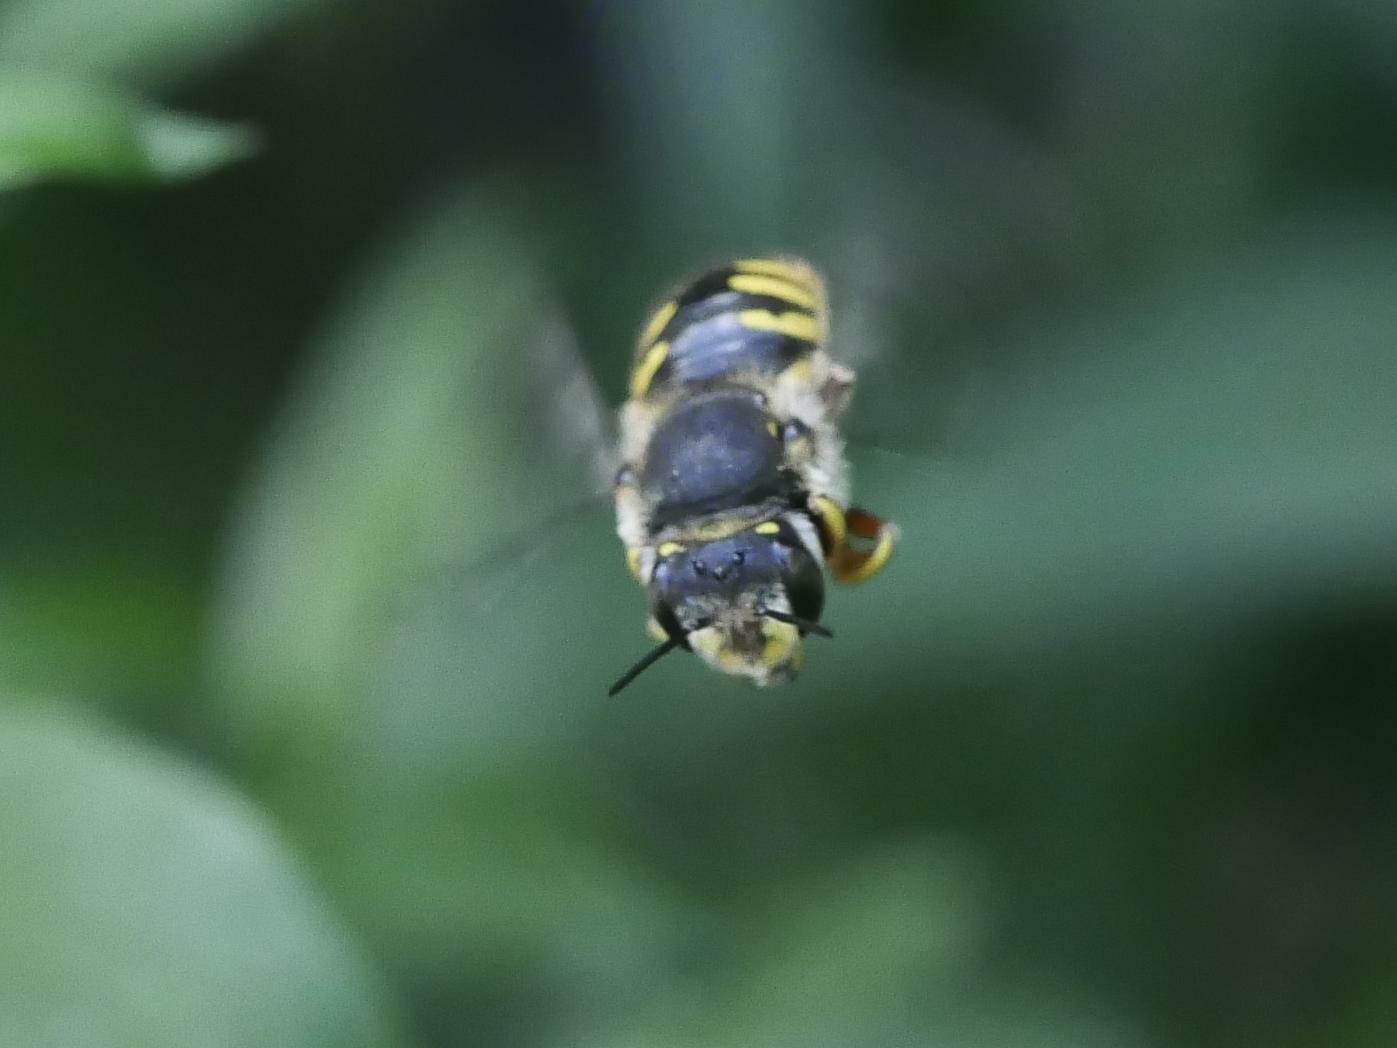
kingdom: Animalia
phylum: Arthropoda
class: Insecta
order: Hymenoptera
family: Megachilidae
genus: Anthidium
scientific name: Anthidium manicatum
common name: Wool carder bee
